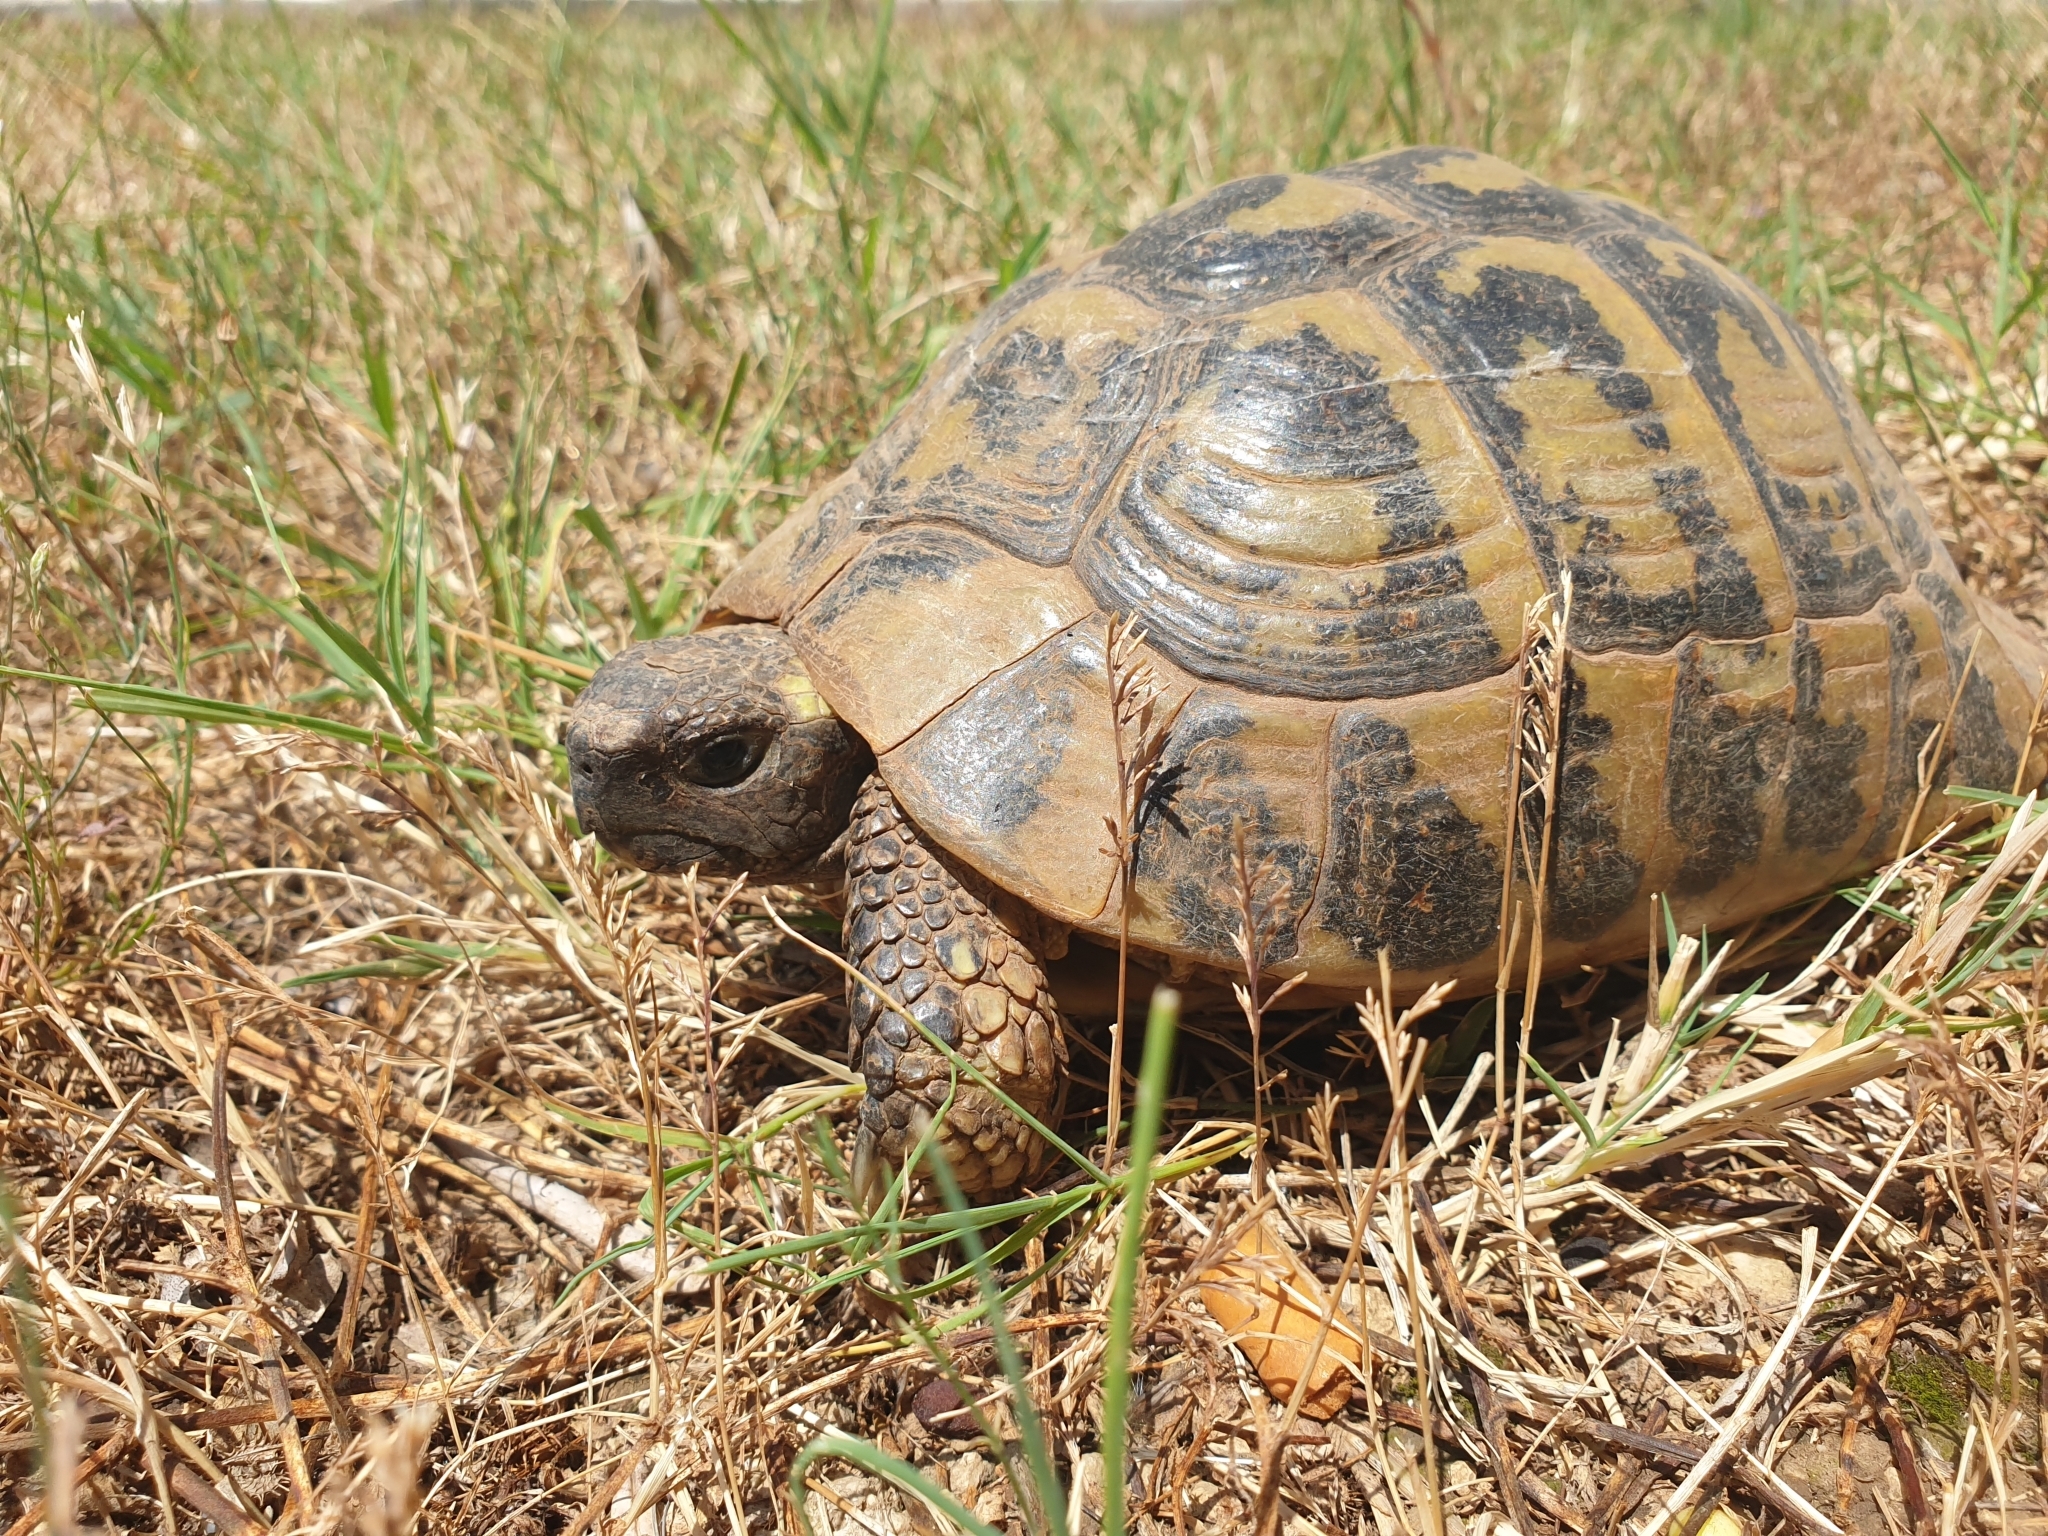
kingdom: Animalia
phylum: Chordata
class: Testudines
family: Testudinidae
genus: Testudo
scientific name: Testudo hermanni
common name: Hermann's tortoise
